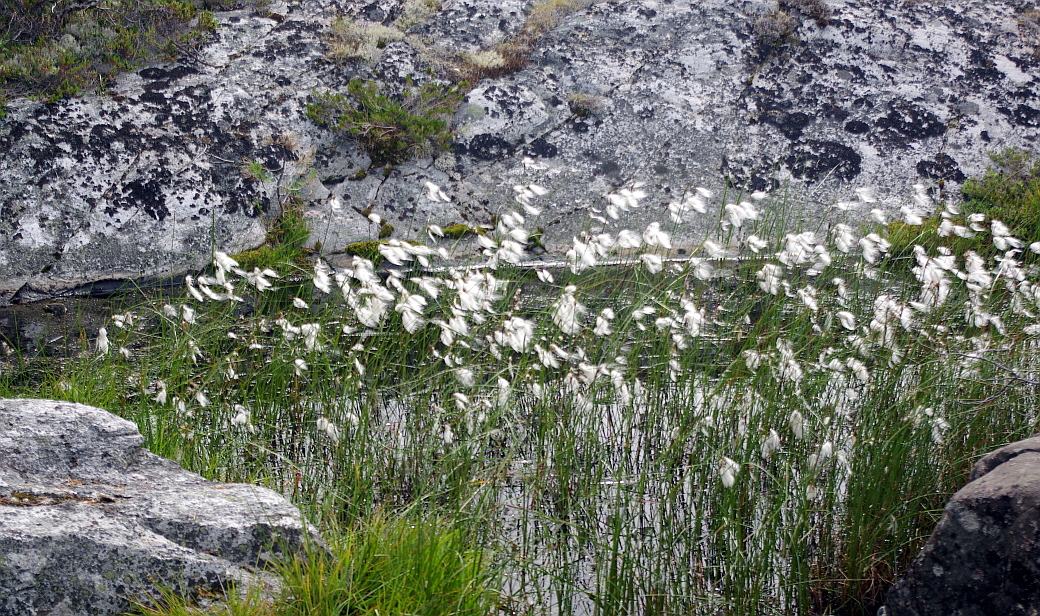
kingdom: Plantae
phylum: Tracheophyta
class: Liliopsida
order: Poales
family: Cyperaceae
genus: Eriophorum
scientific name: Eriophorum angustifolium
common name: Common cottongrass
